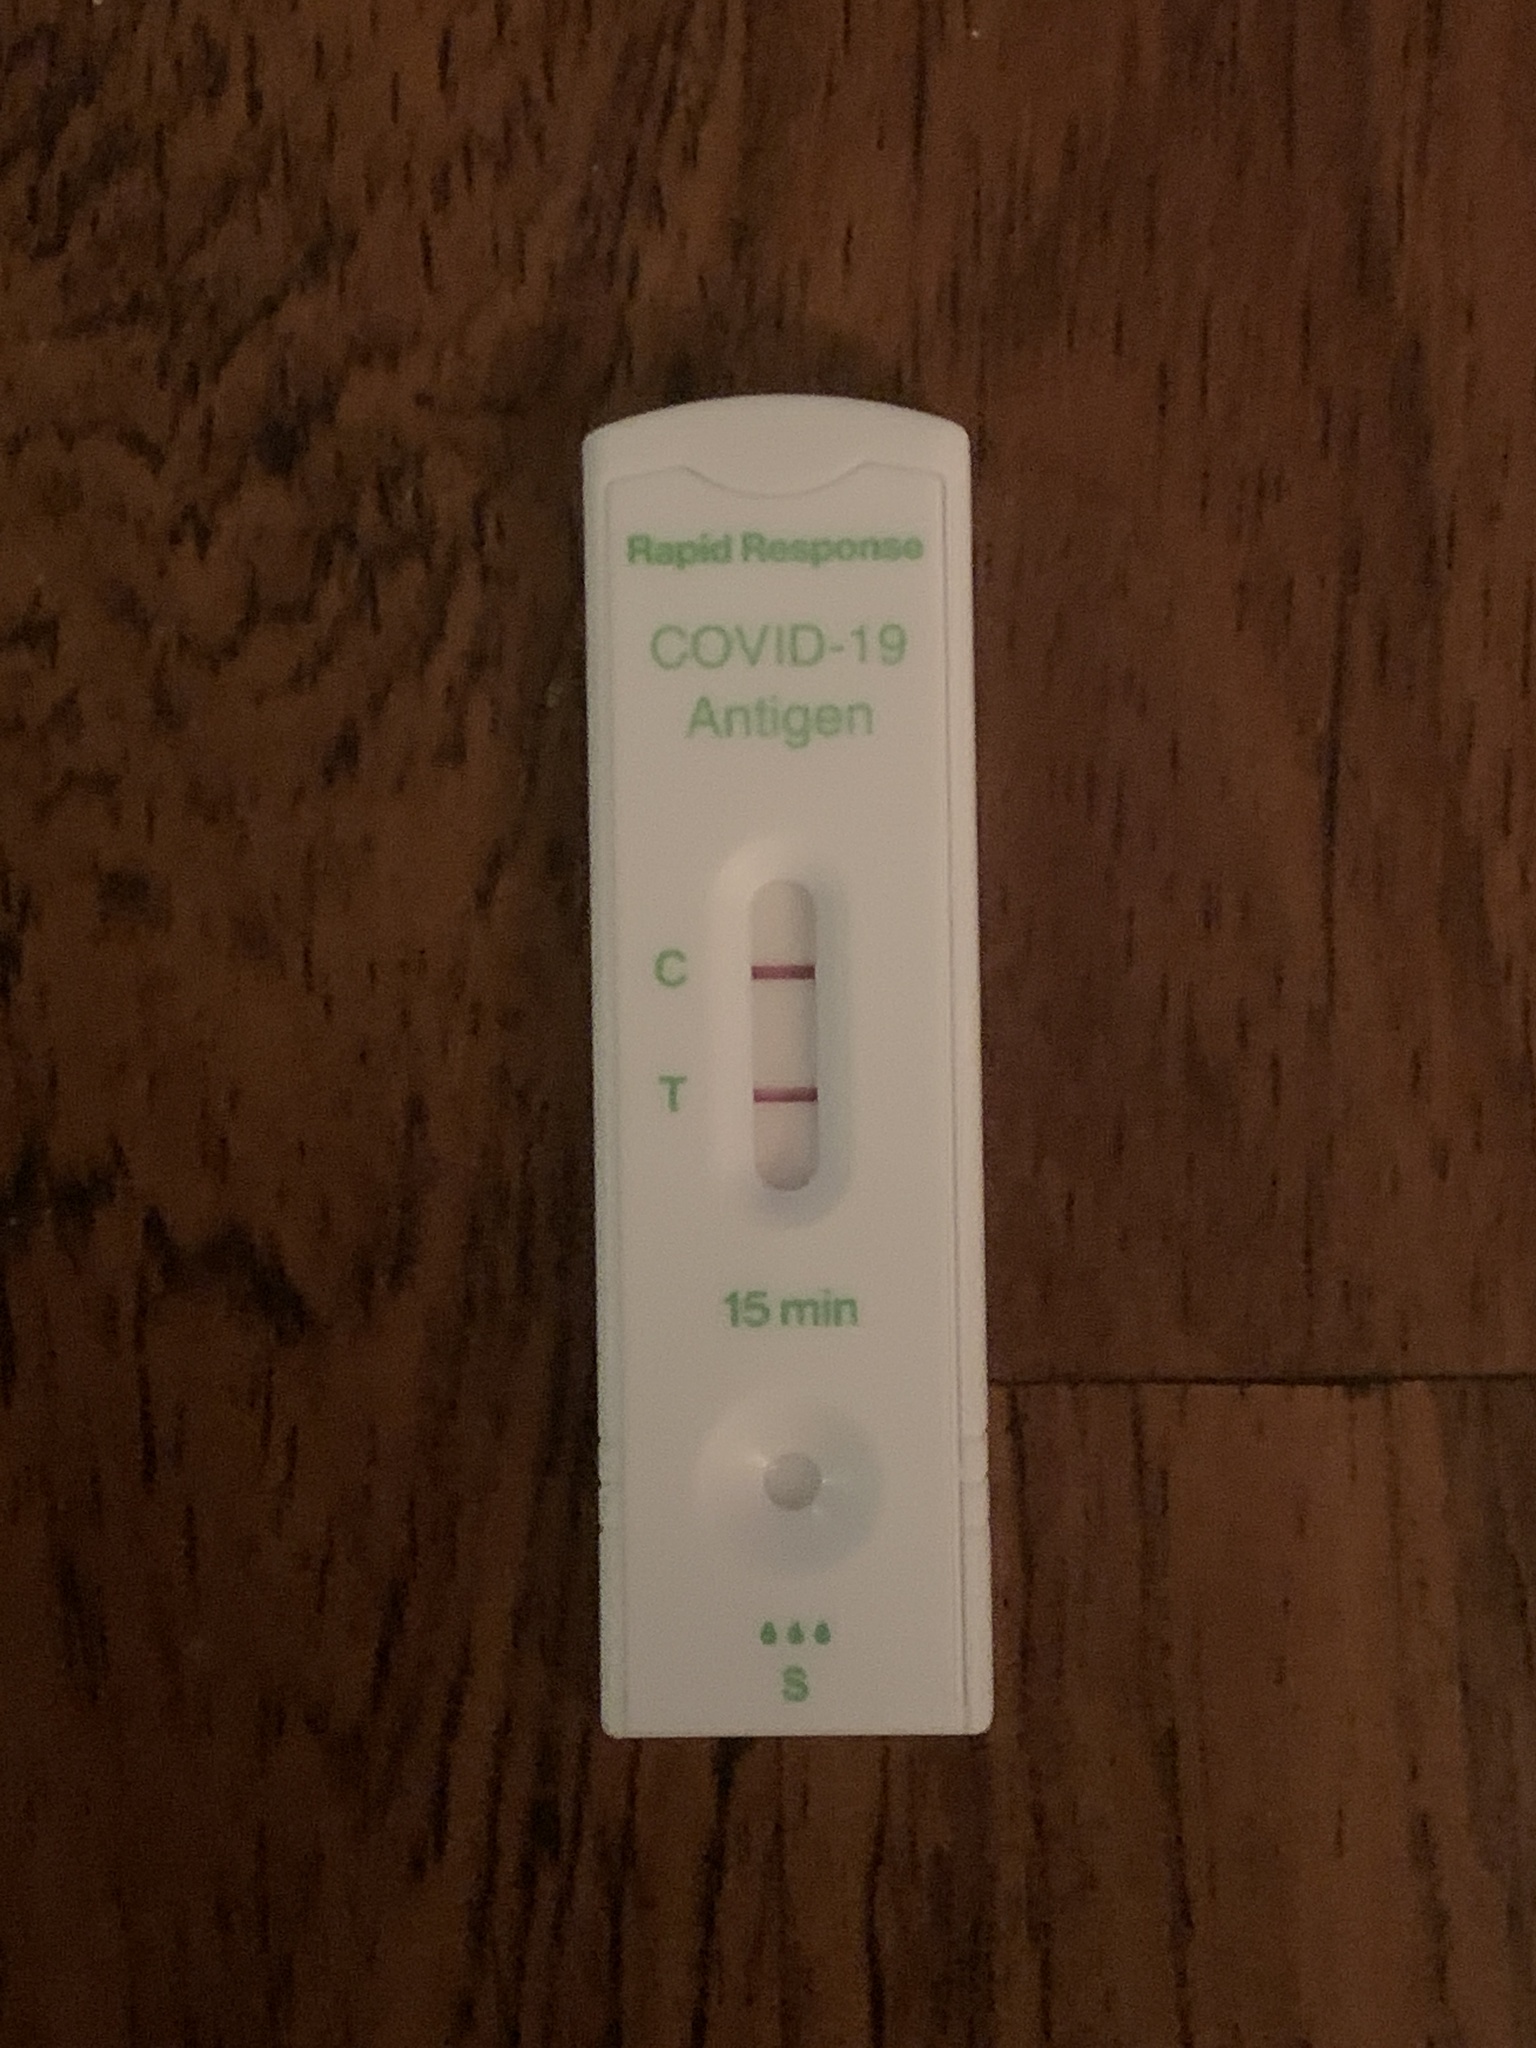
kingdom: Viruses
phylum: Pisuviricota
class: Pisoniviricetes
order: Nidovirales
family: Coronaviridae
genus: Betacoronavirus
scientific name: Betacoronavirus
